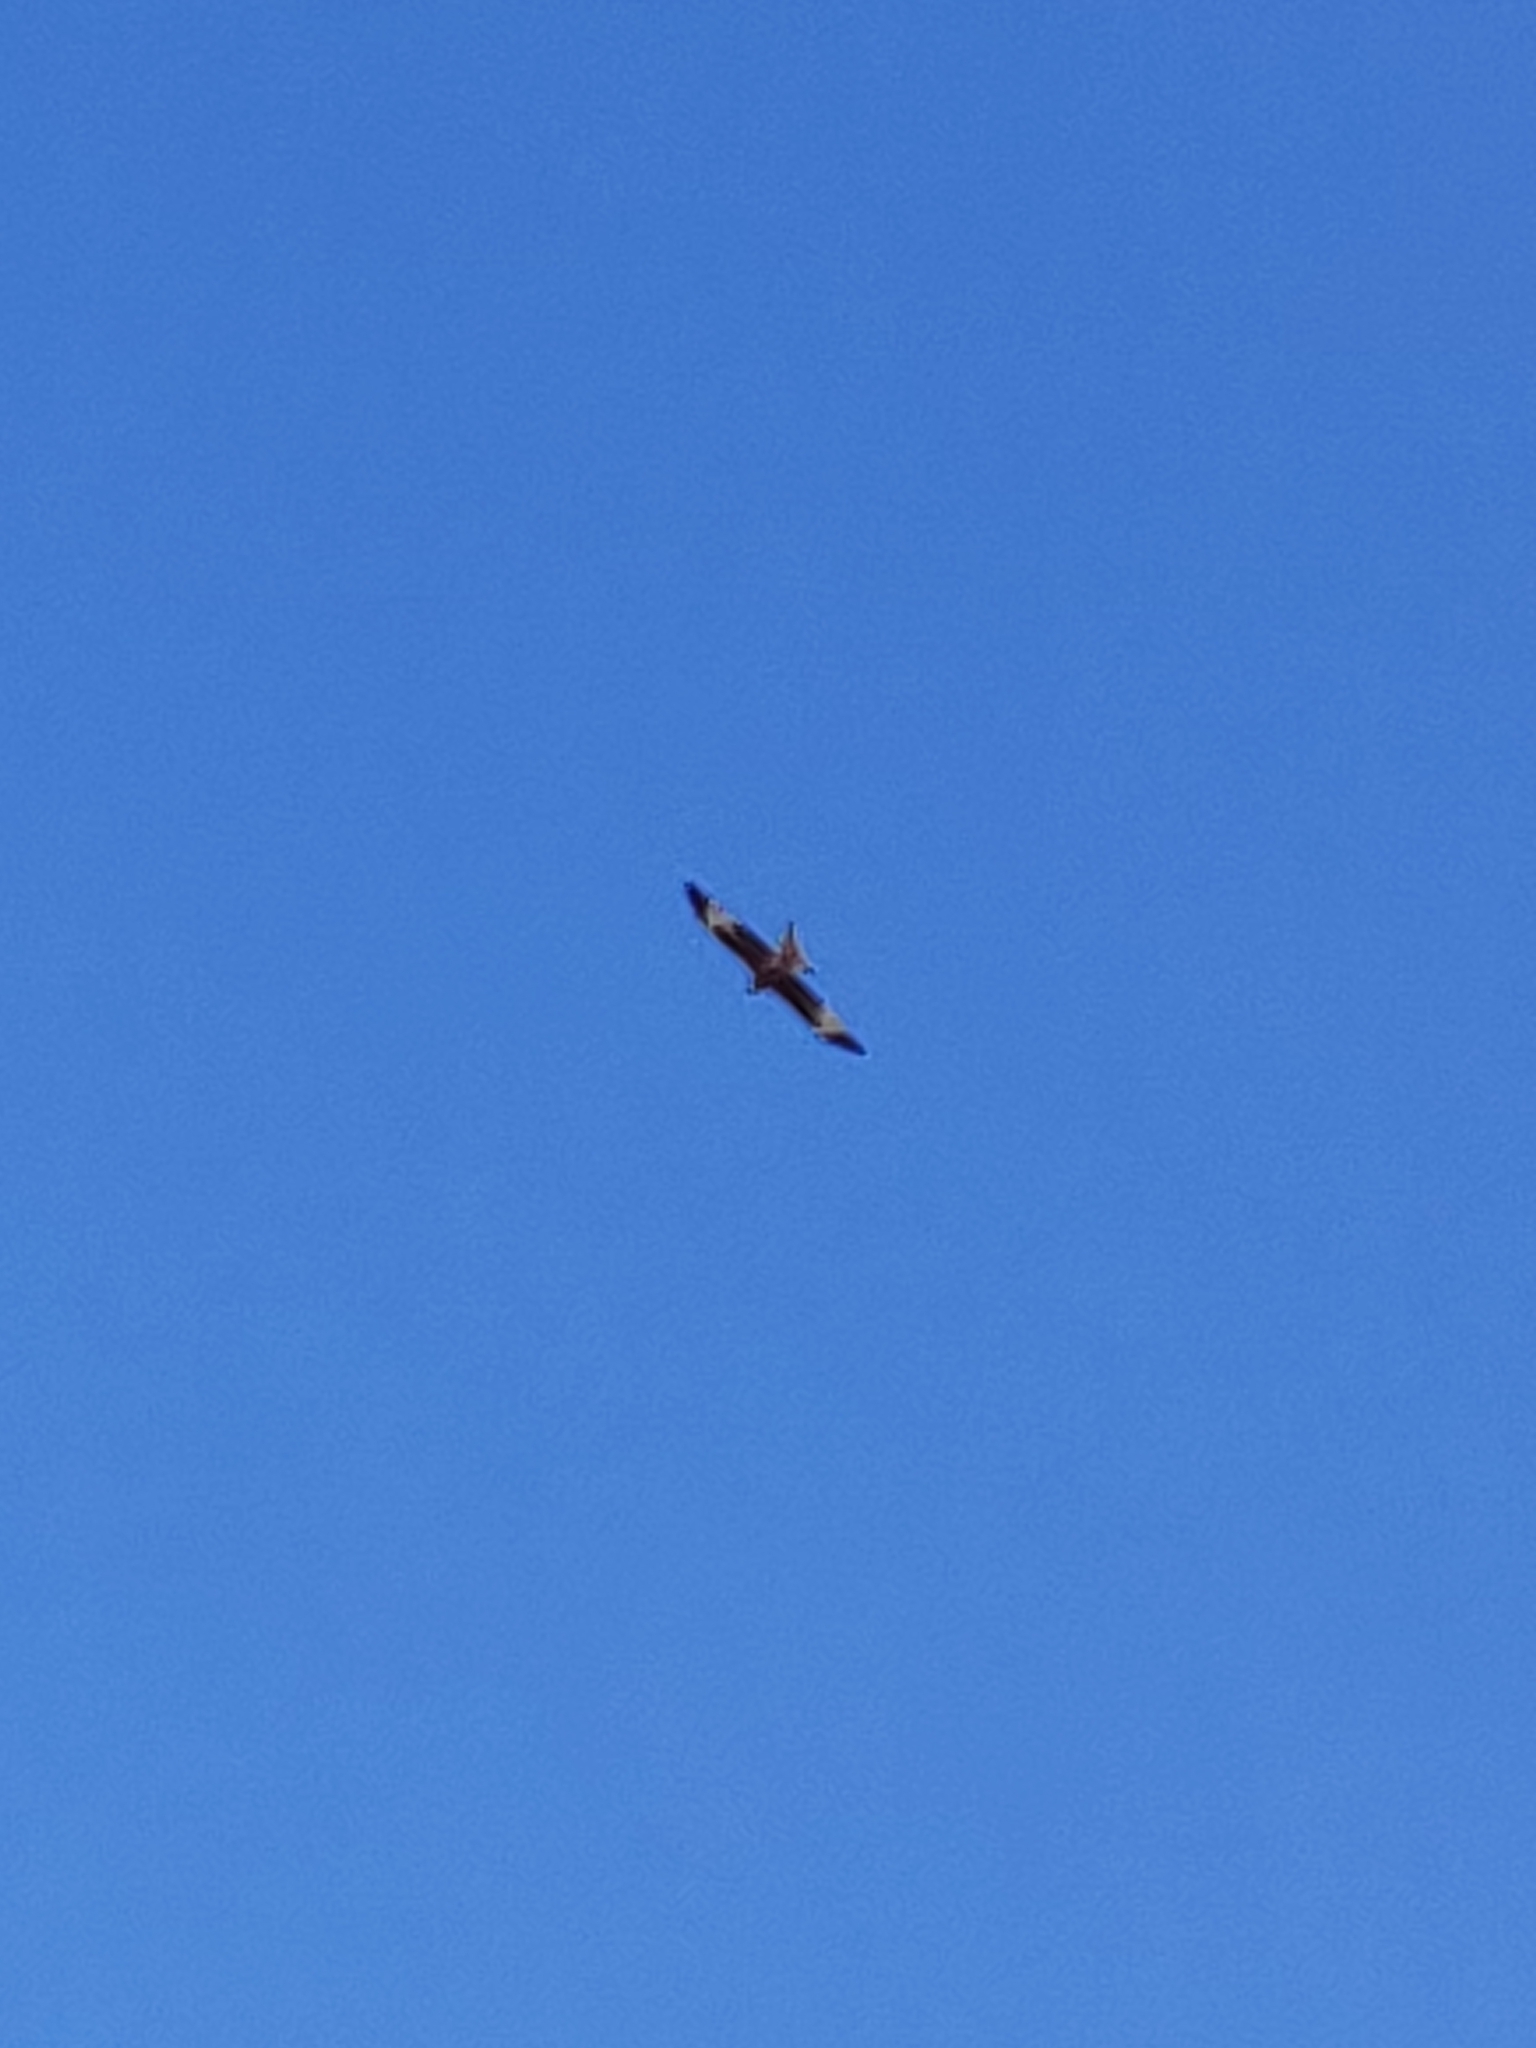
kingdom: Animalia
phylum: Chordata
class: Aves
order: Accipitriformes
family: Accipitridae
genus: Milvus
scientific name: Milvus milvus
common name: Red kite
